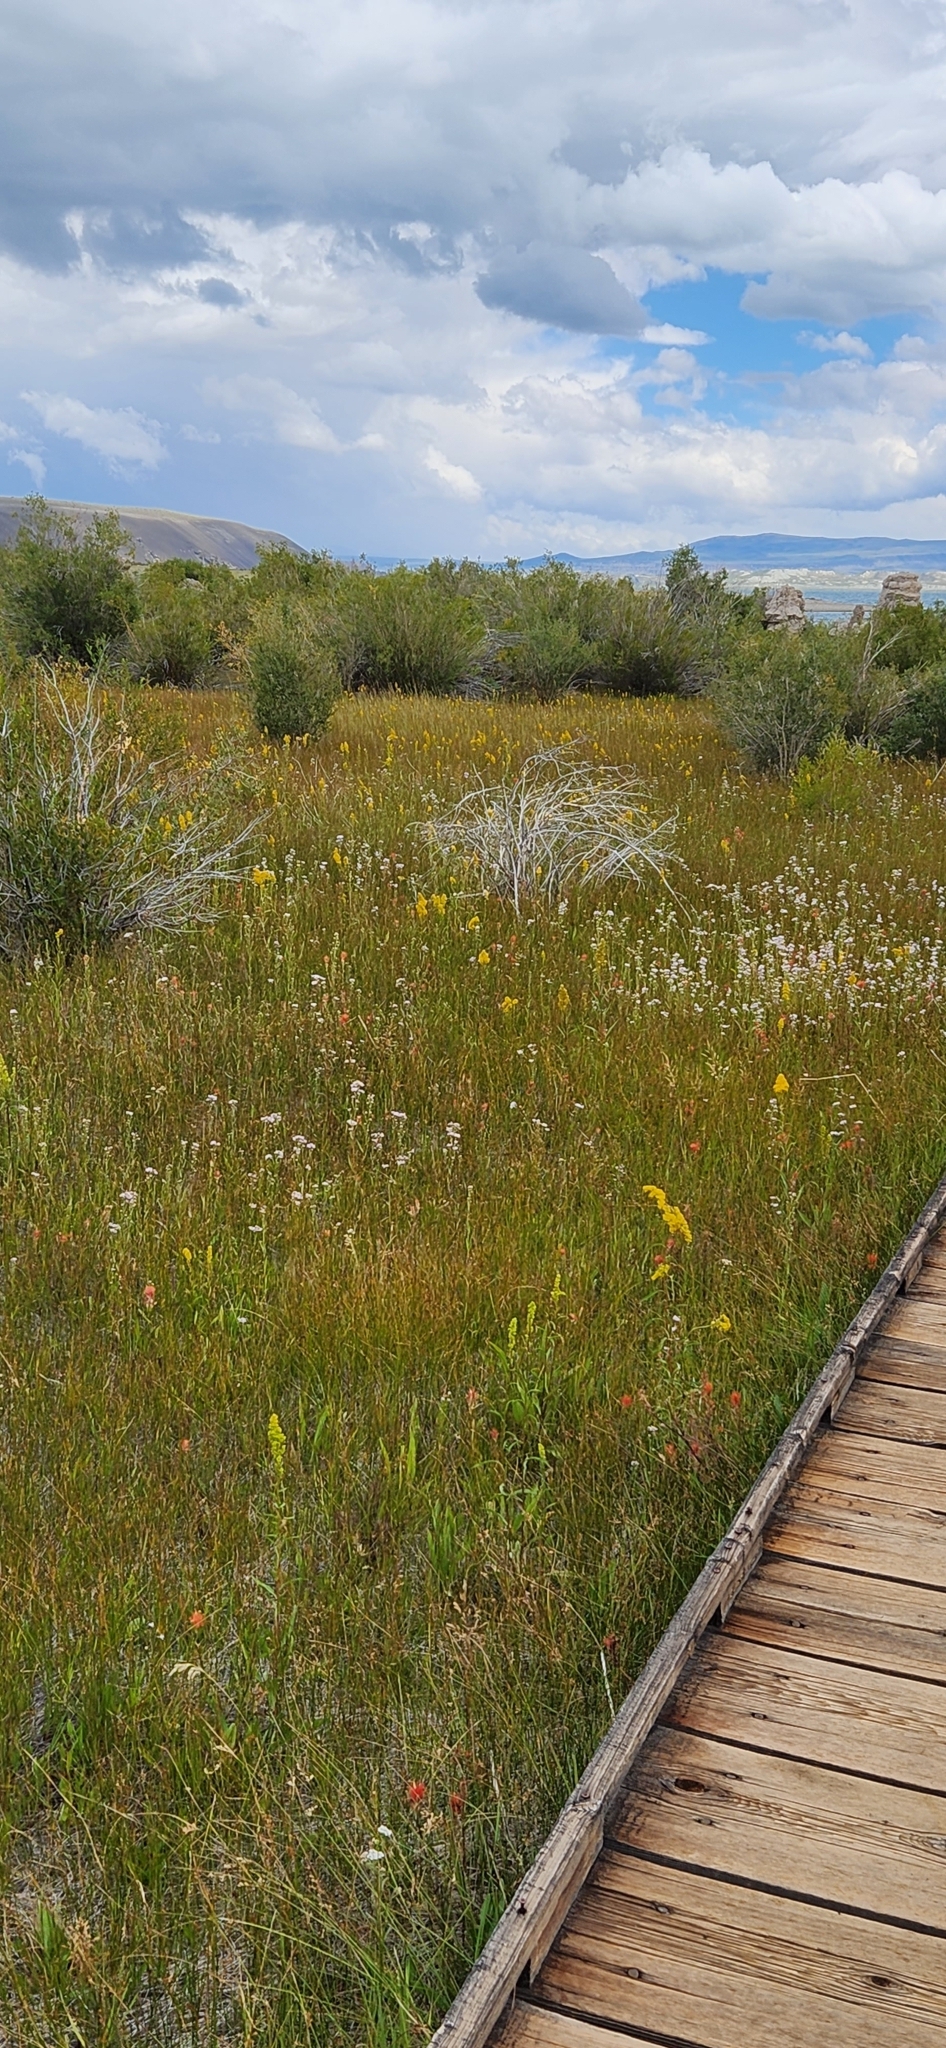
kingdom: Plantae
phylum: Tracheophyta
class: Magnoliopsida
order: Asterales
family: Asteraceae
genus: Solidago
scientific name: Solidago spectabilis
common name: Basin goldenrod
